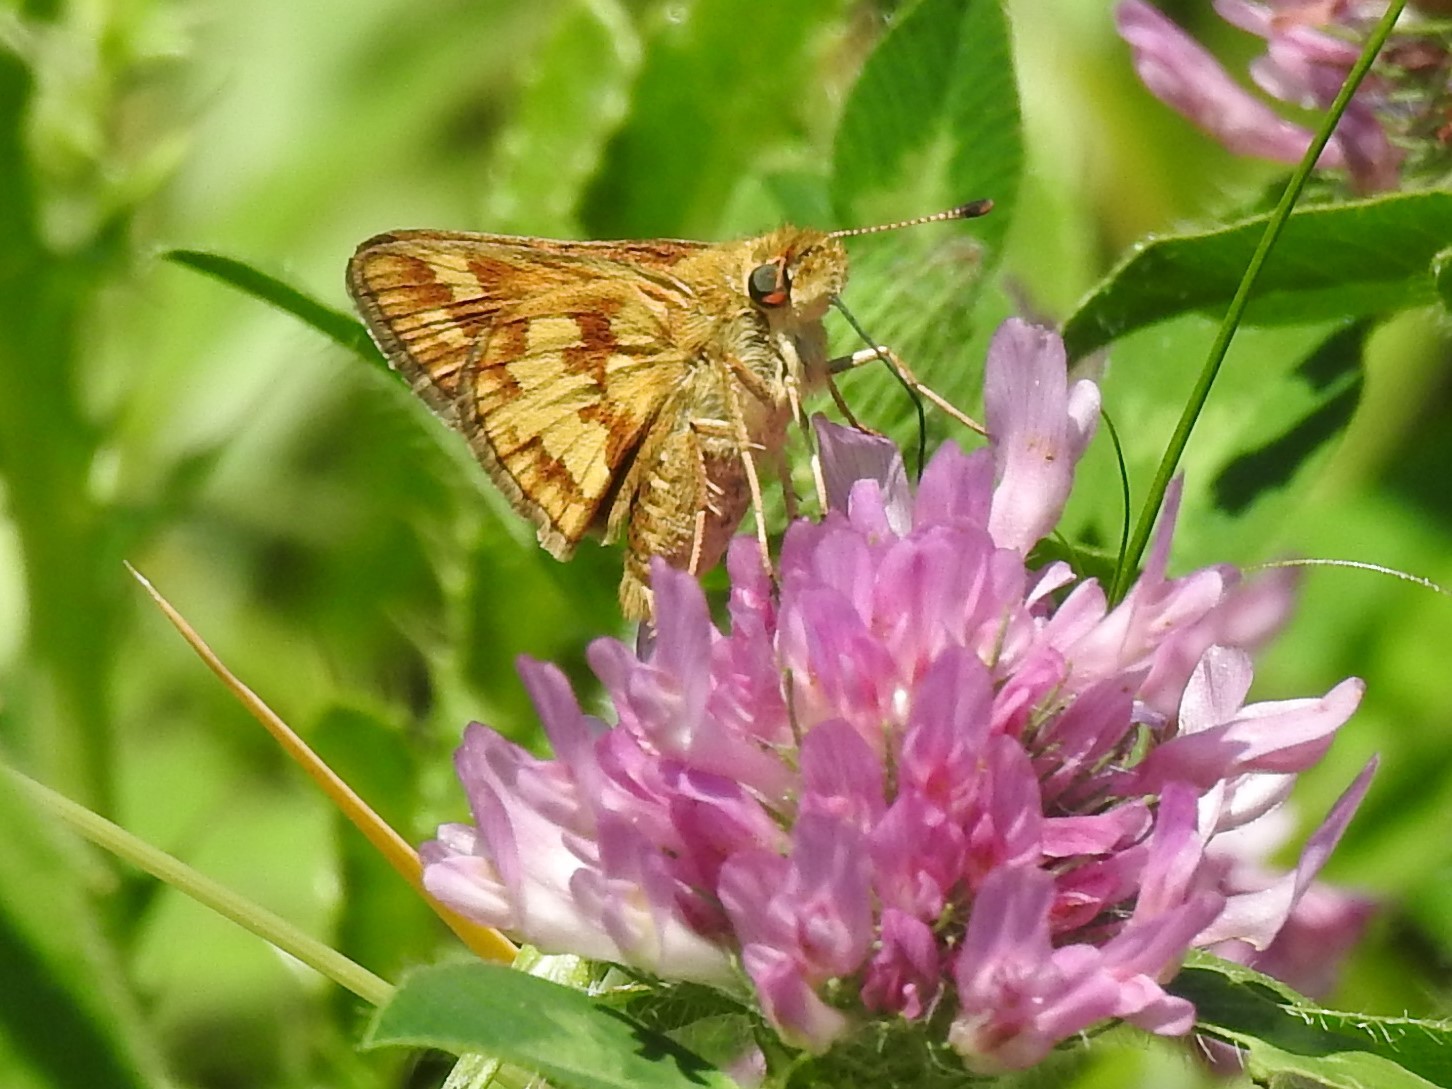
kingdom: Animalia
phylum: Arthropoda
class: Insecta
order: Lepidoptera
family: Hesperiidae
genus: Polites
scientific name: Polites coras
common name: Peck's skipper
